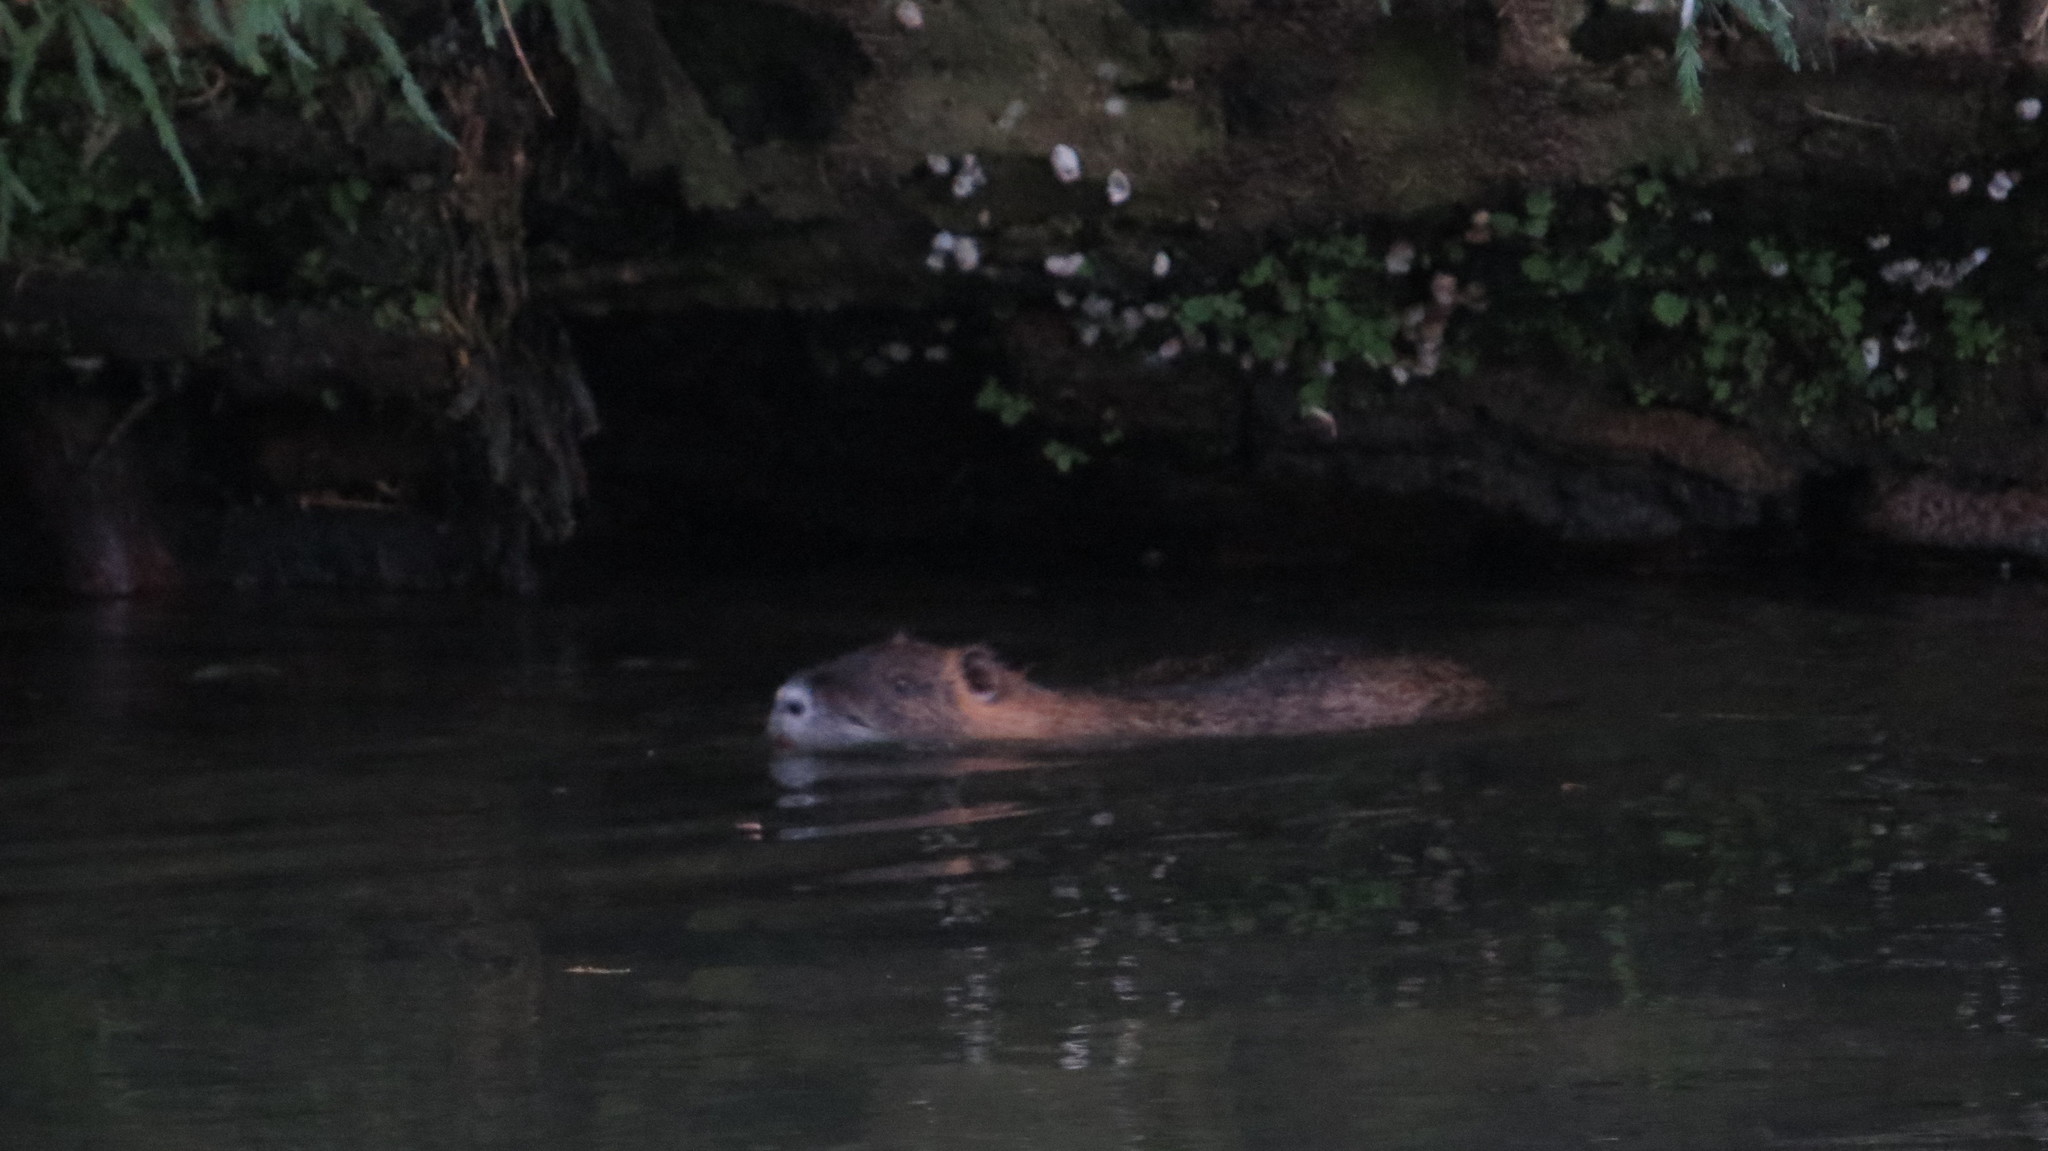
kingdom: Animalia
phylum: Chordata
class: Mammalia
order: Rodentia
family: Myocastoridae
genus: Myocastor
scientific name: Myocastor coypus
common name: Coypu
